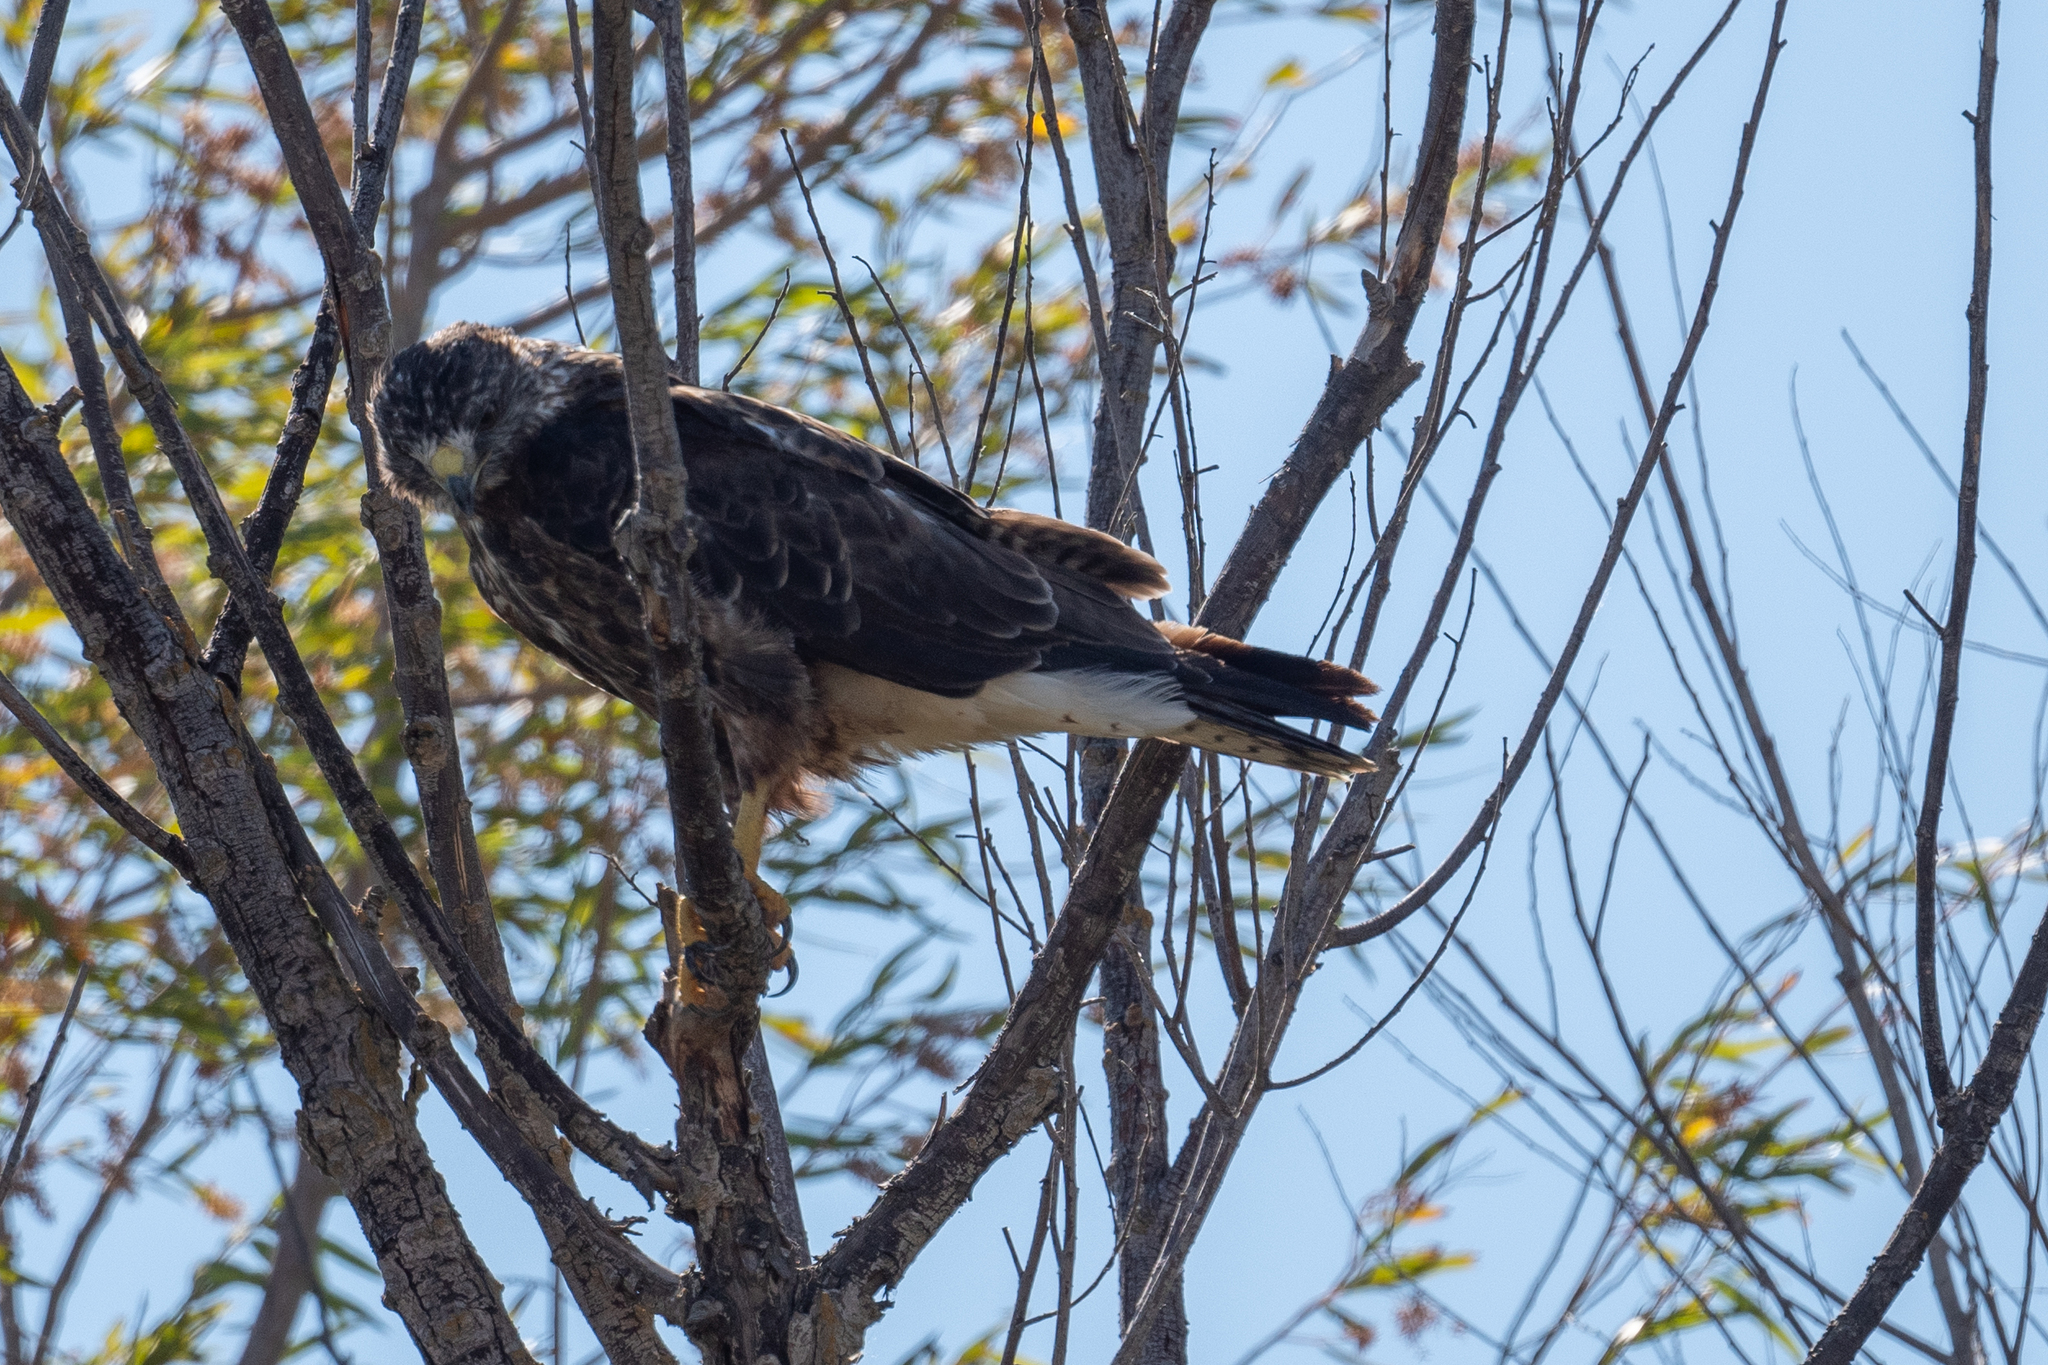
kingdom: Animalia
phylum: Chordata
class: Aves
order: Accipitriformes
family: Accipitridae
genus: Buteo
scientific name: Buteo swainsoni
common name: Swainson's hawk
